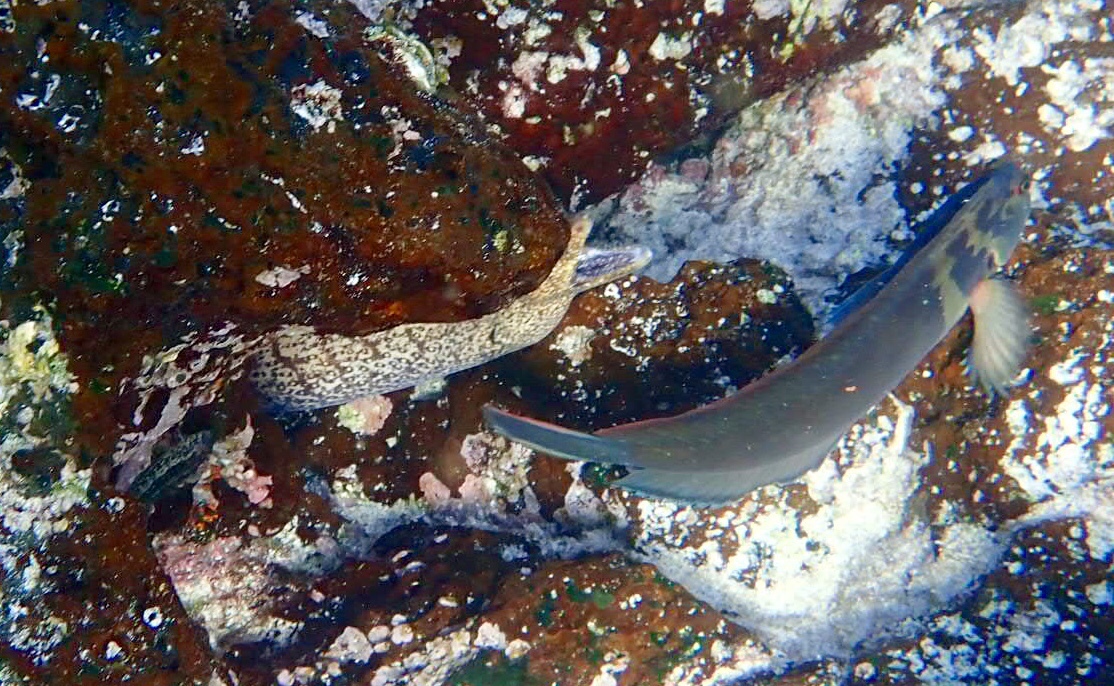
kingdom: Animalia
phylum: Chordata
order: Perciformes
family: Blenniidae
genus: Ophioblennius
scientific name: Ophioblennius steindachneri
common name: Panamic fanged blenny
